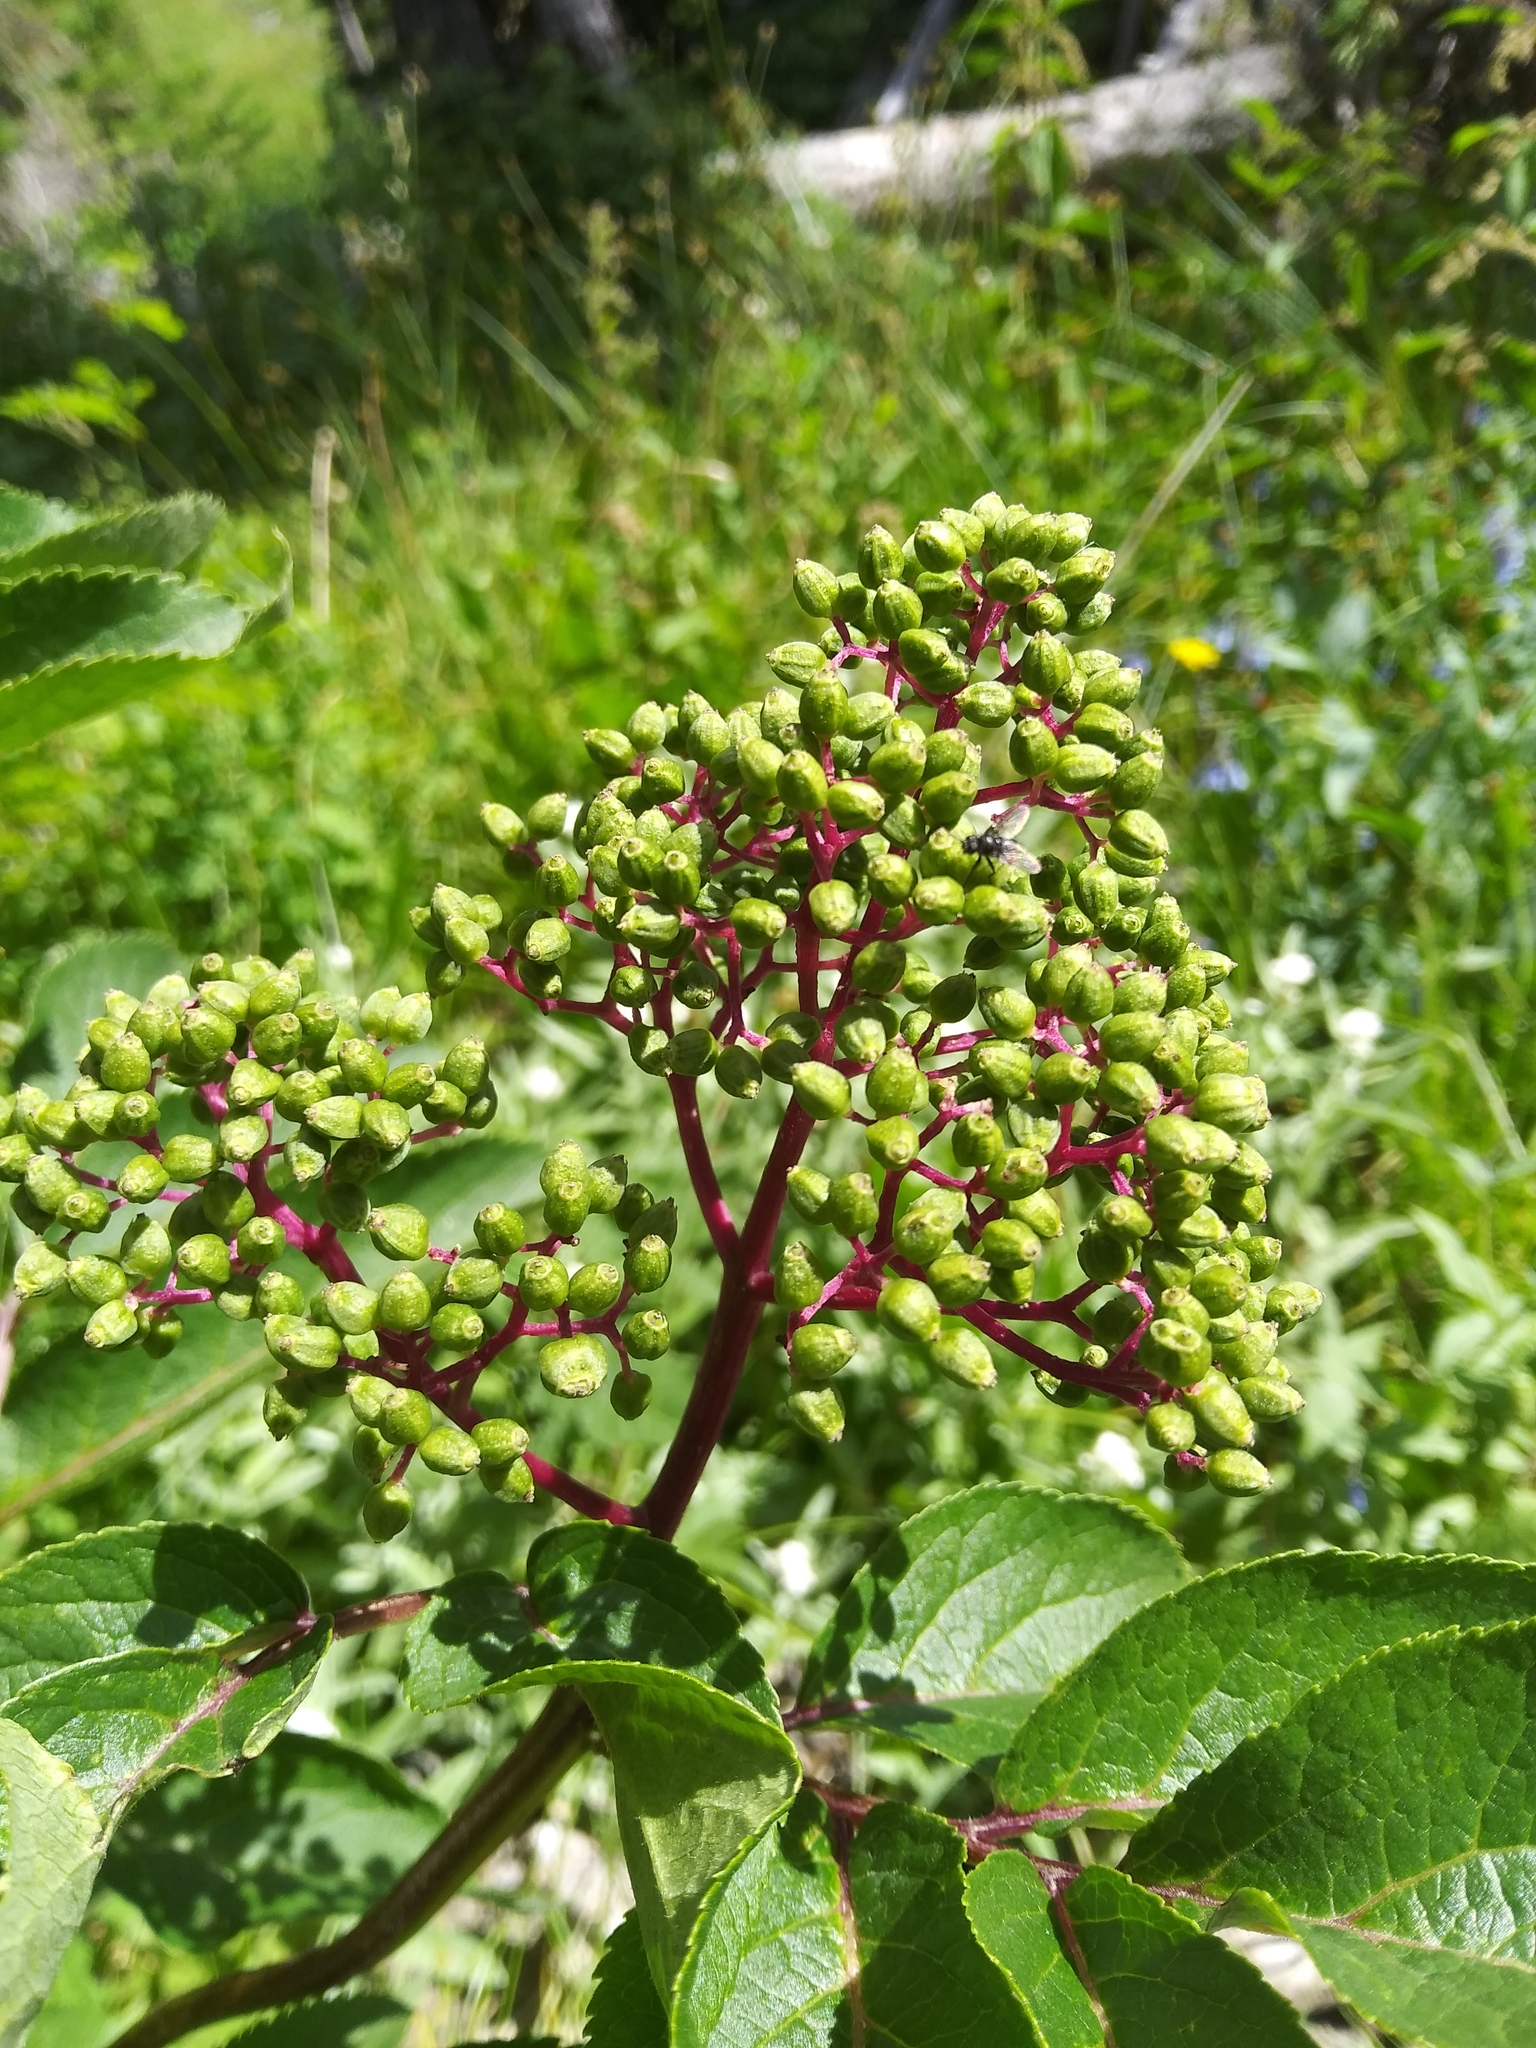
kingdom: Plantae
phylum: Tracheophyta
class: Magnoliopsida
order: Dipsacales
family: Viburnaceae
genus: Sambucus
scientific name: Sambucus racemosa
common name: Red-berried elder
